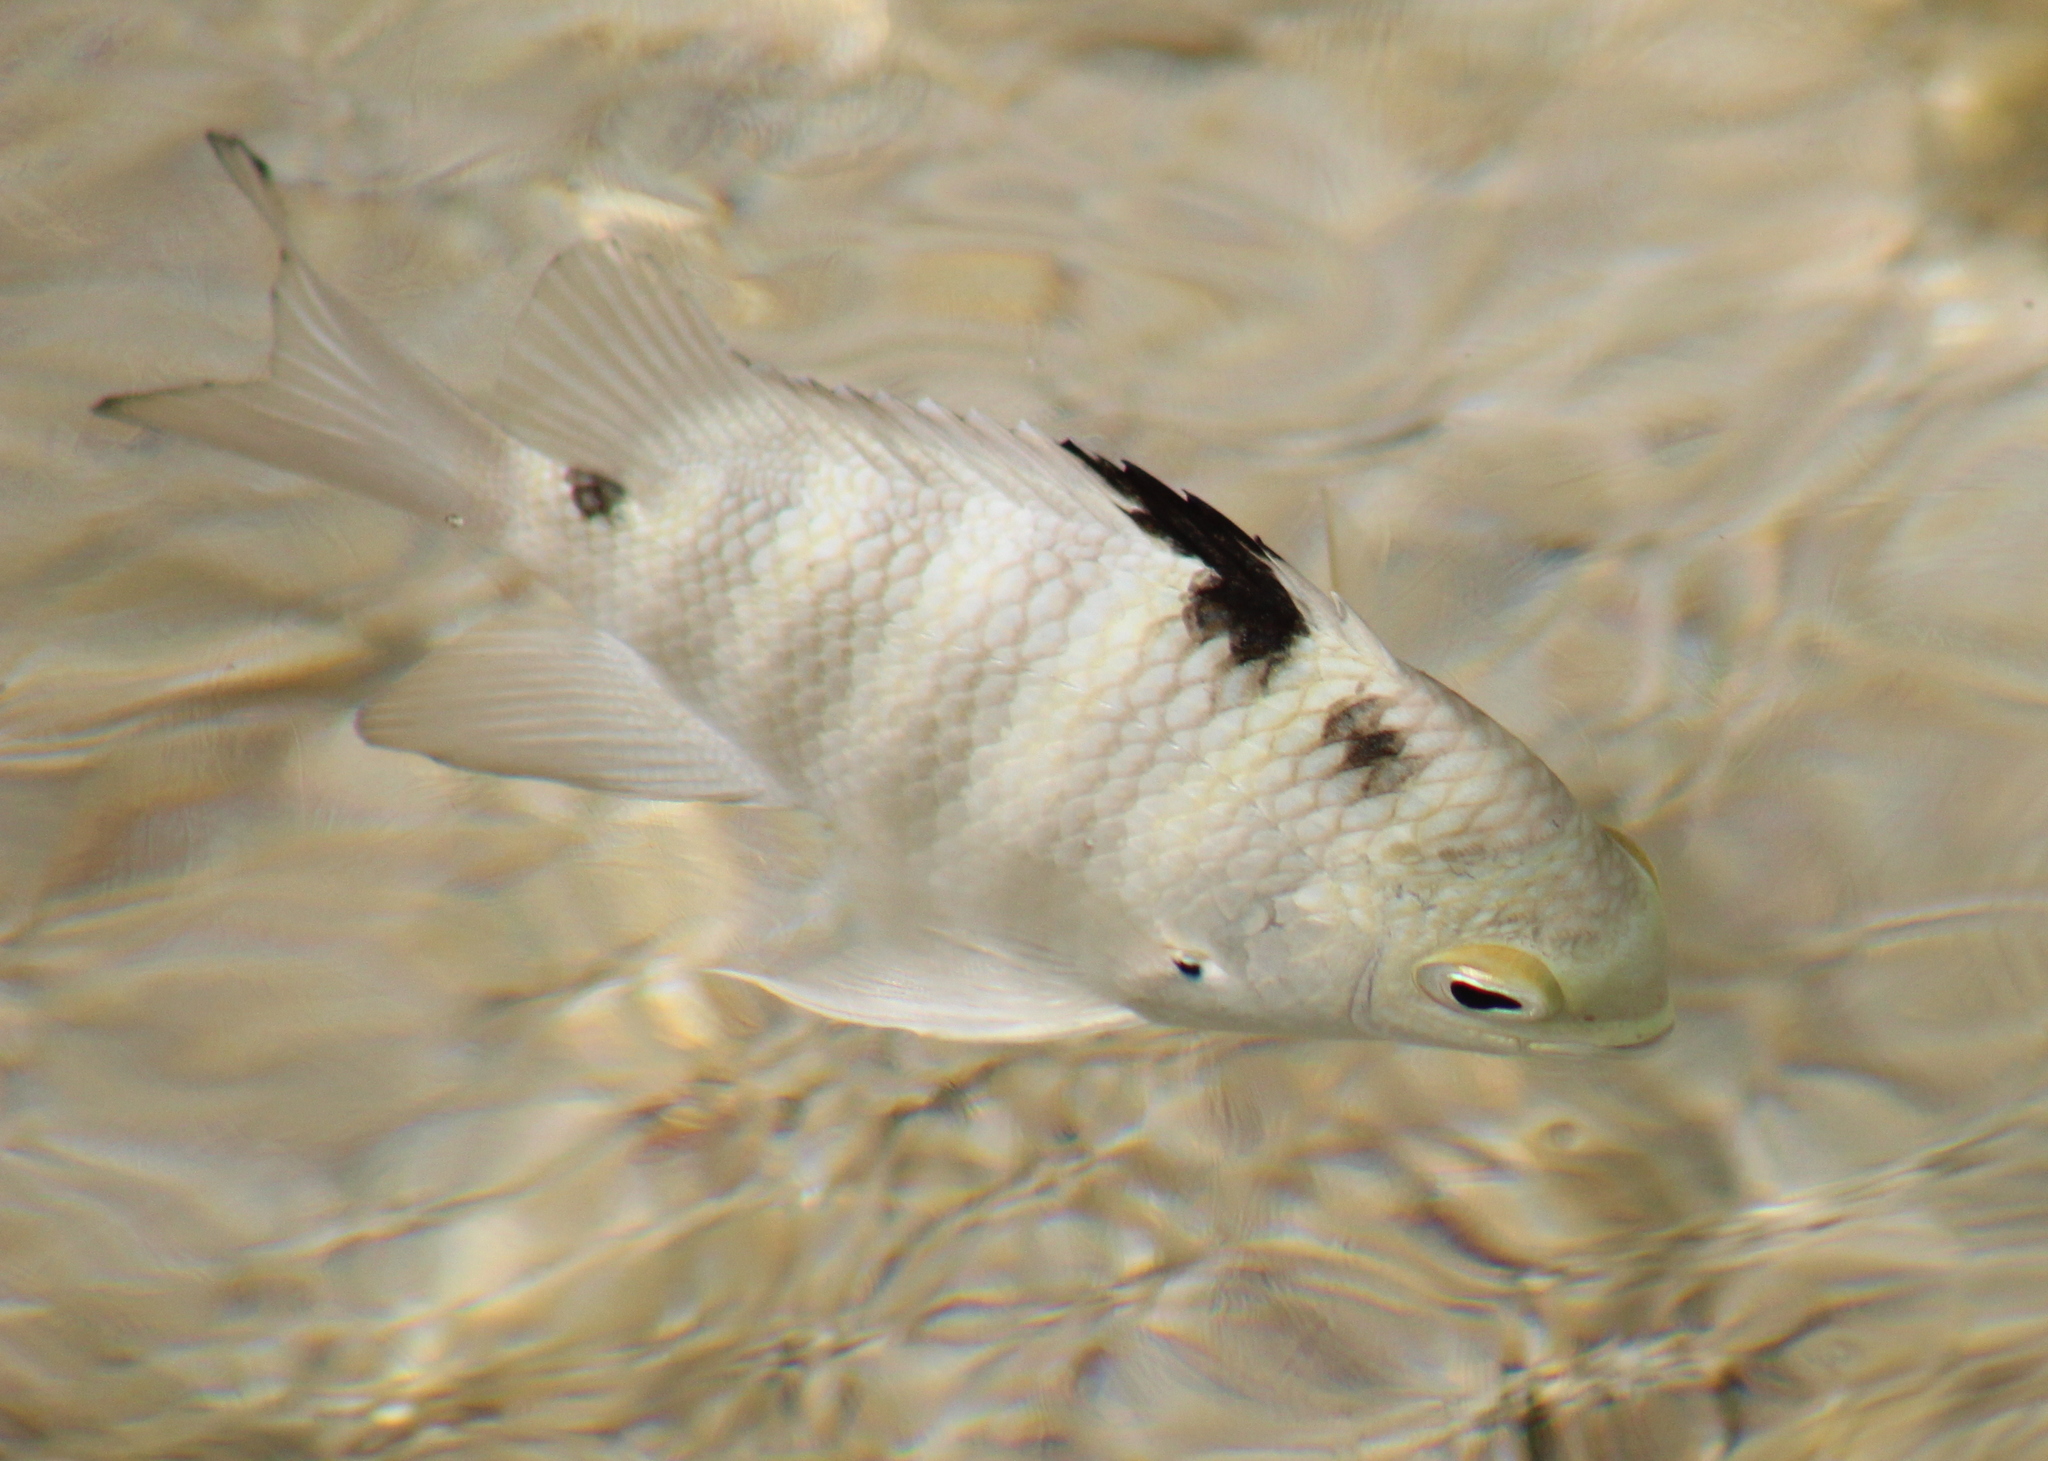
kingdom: Animalia
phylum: Chordata
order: Perciformes
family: Pomacentridae
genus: Abudefduf
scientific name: Abudefduf septemfasciatus
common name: Banded sergeant
